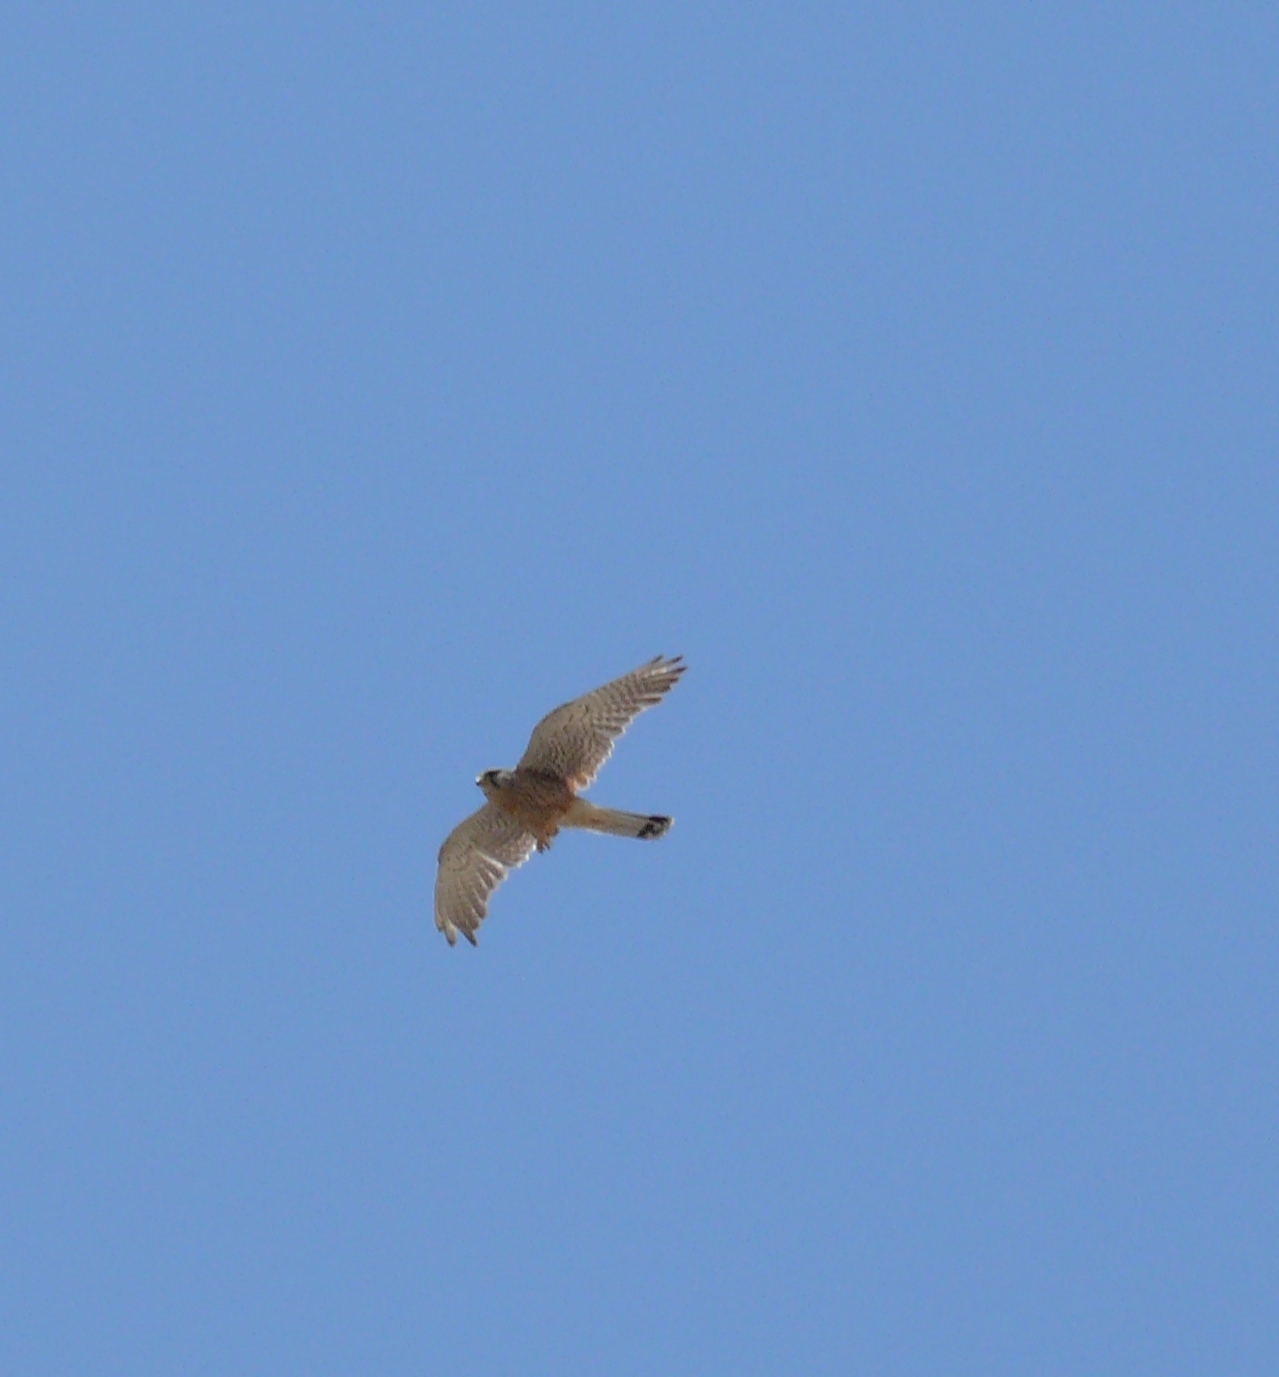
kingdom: Animalia
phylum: Chordata
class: Aves
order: Falconiformes
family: Falconidae
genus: Falco
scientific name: Falco naumanni
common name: Lesser kestrel
